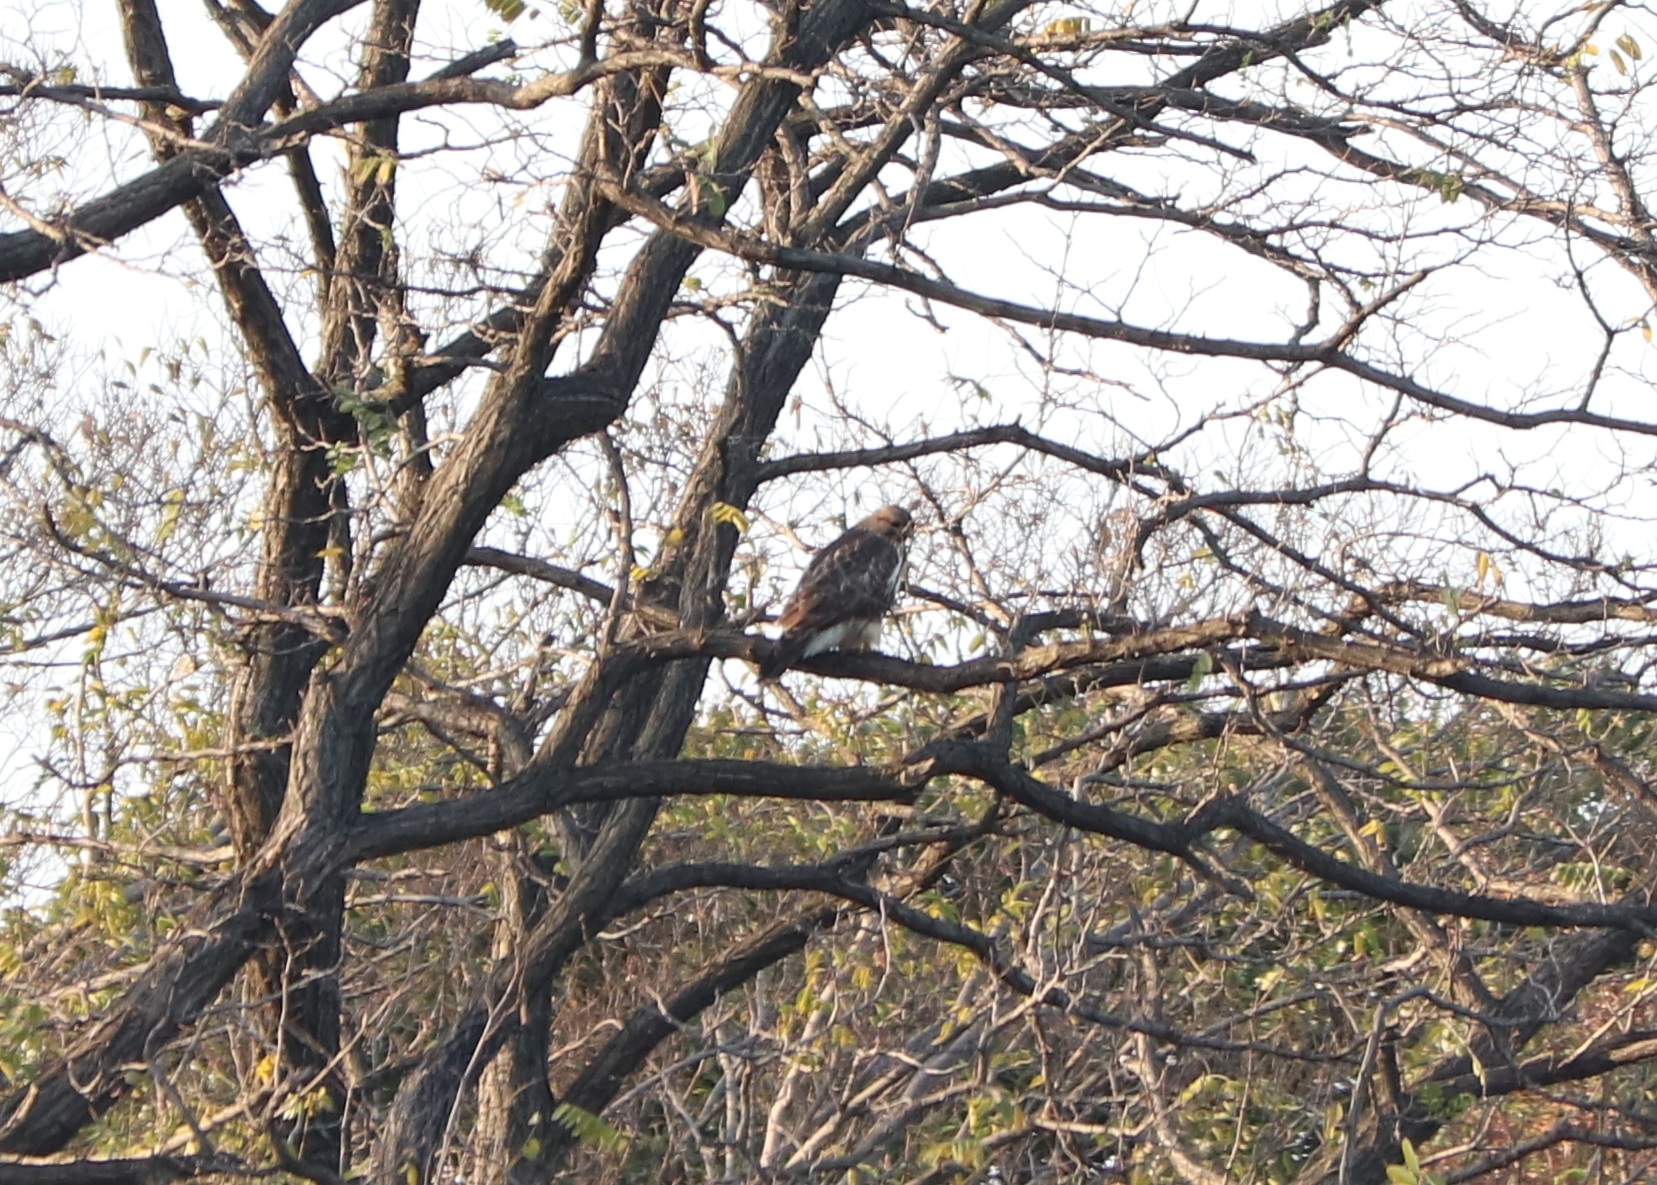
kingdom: Animalia
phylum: Chordata
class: Aves
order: Accipitriformes
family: Accipitridae
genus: Buteo
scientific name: Buteo japonicus
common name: Eastern buzzard
